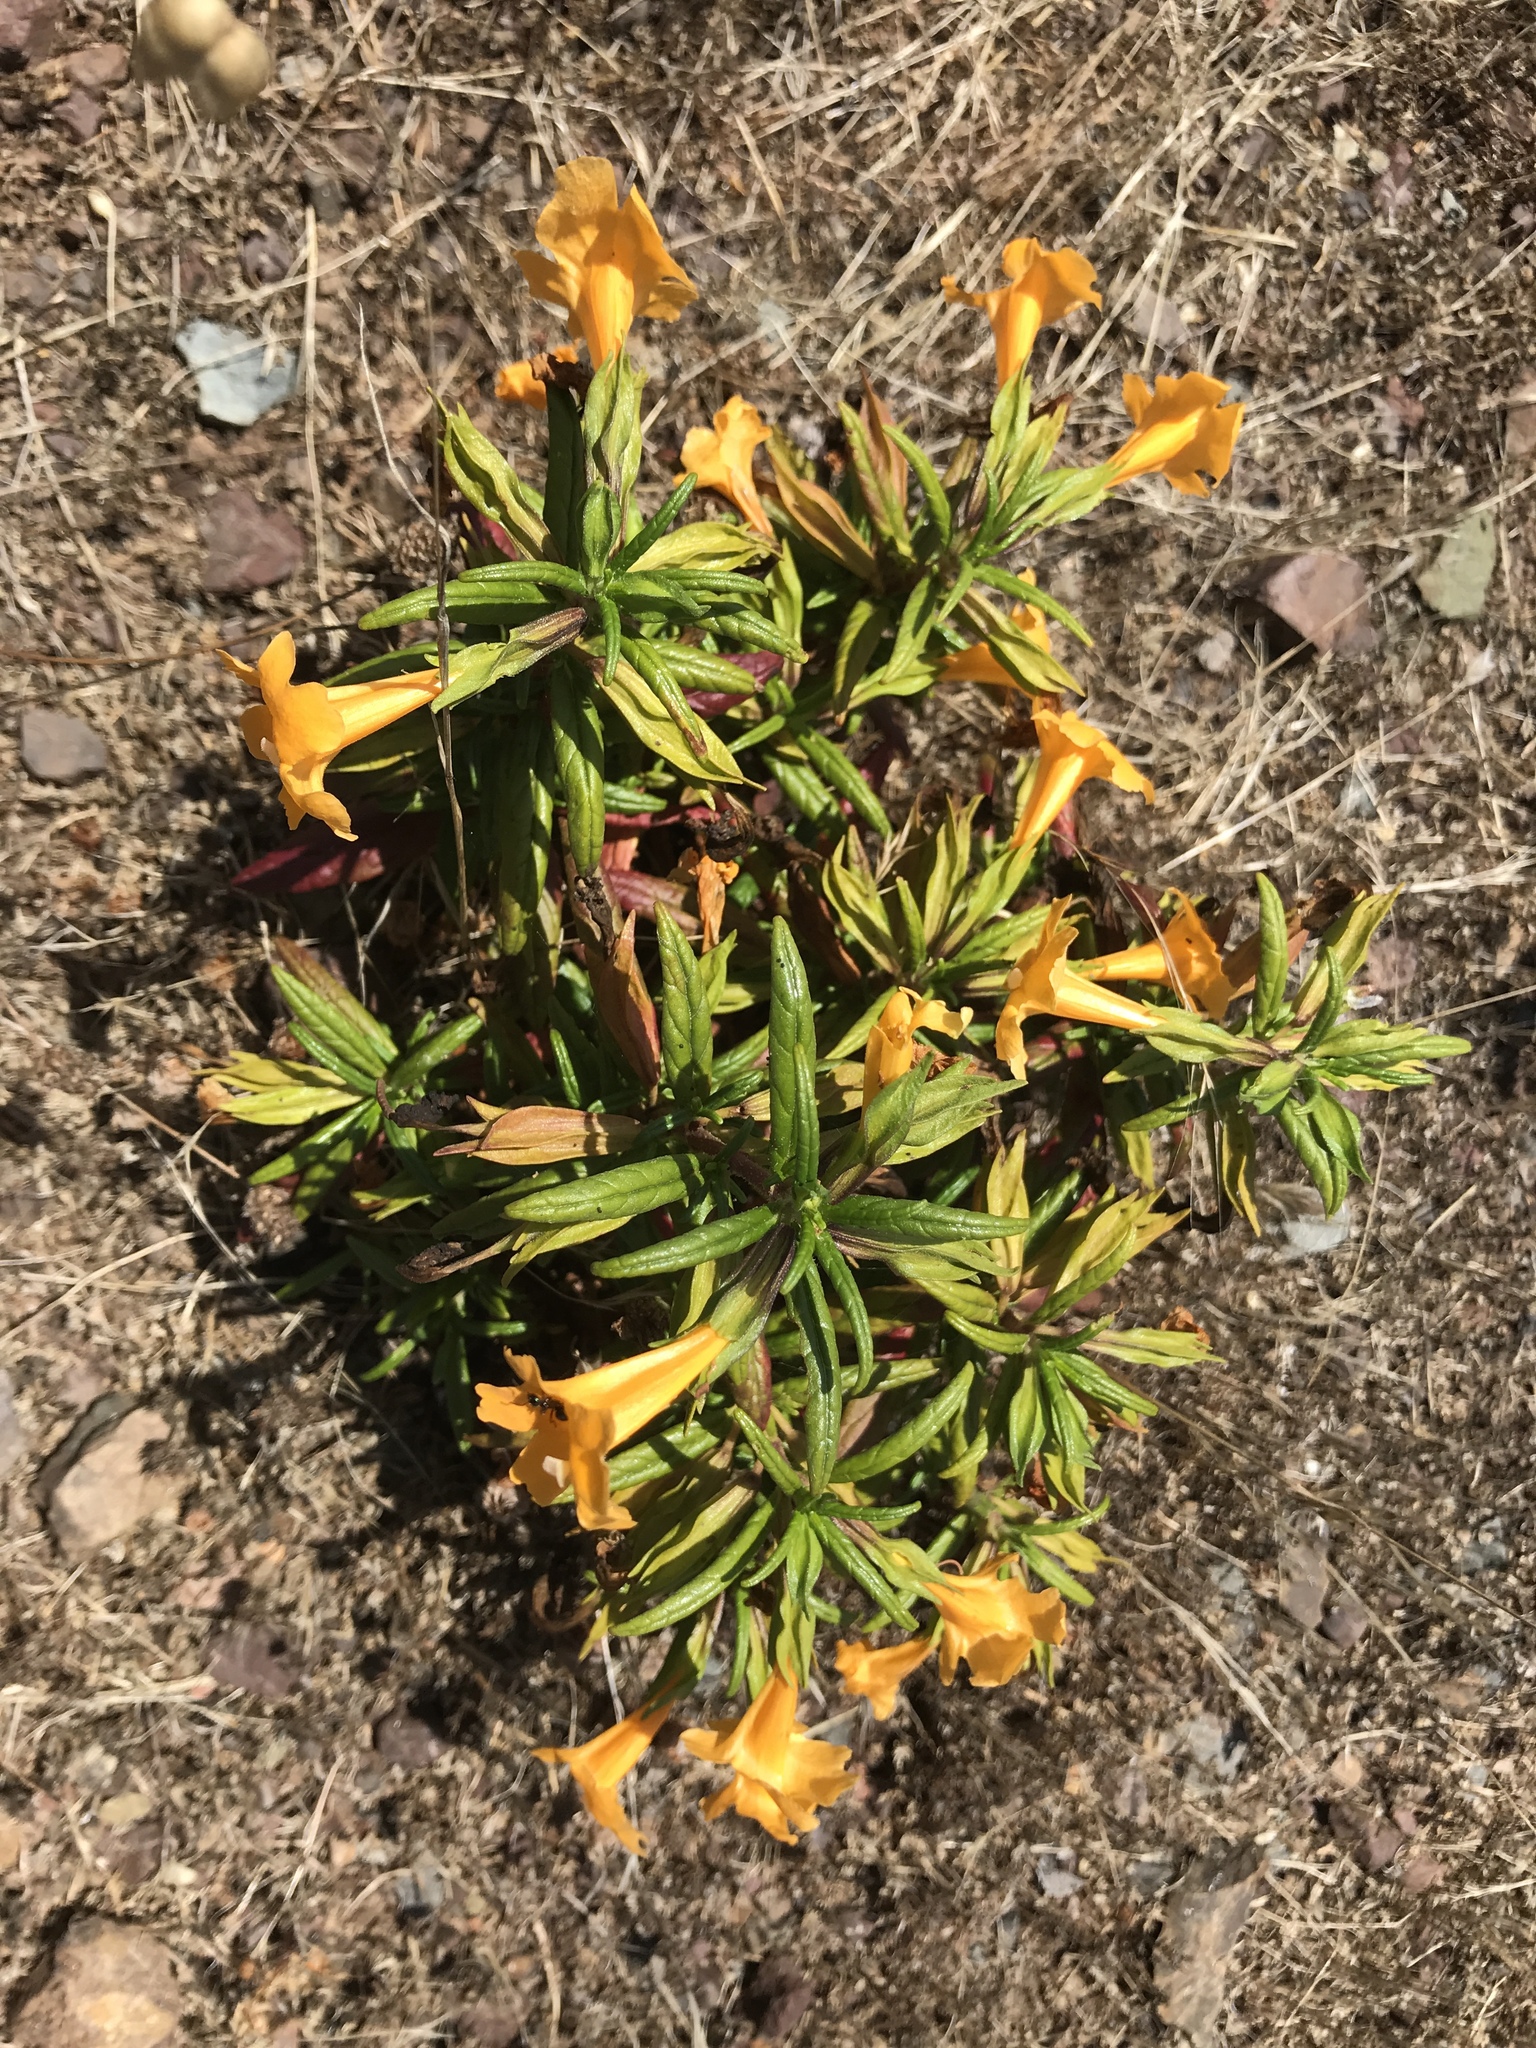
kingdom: Plantae
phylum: Tracheophyta
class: Magnoliopsida
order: Lamiales
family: Phrymaceae
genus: Diplacus
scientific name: Diplacus aurantiacus
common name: Bush monkey-flower
